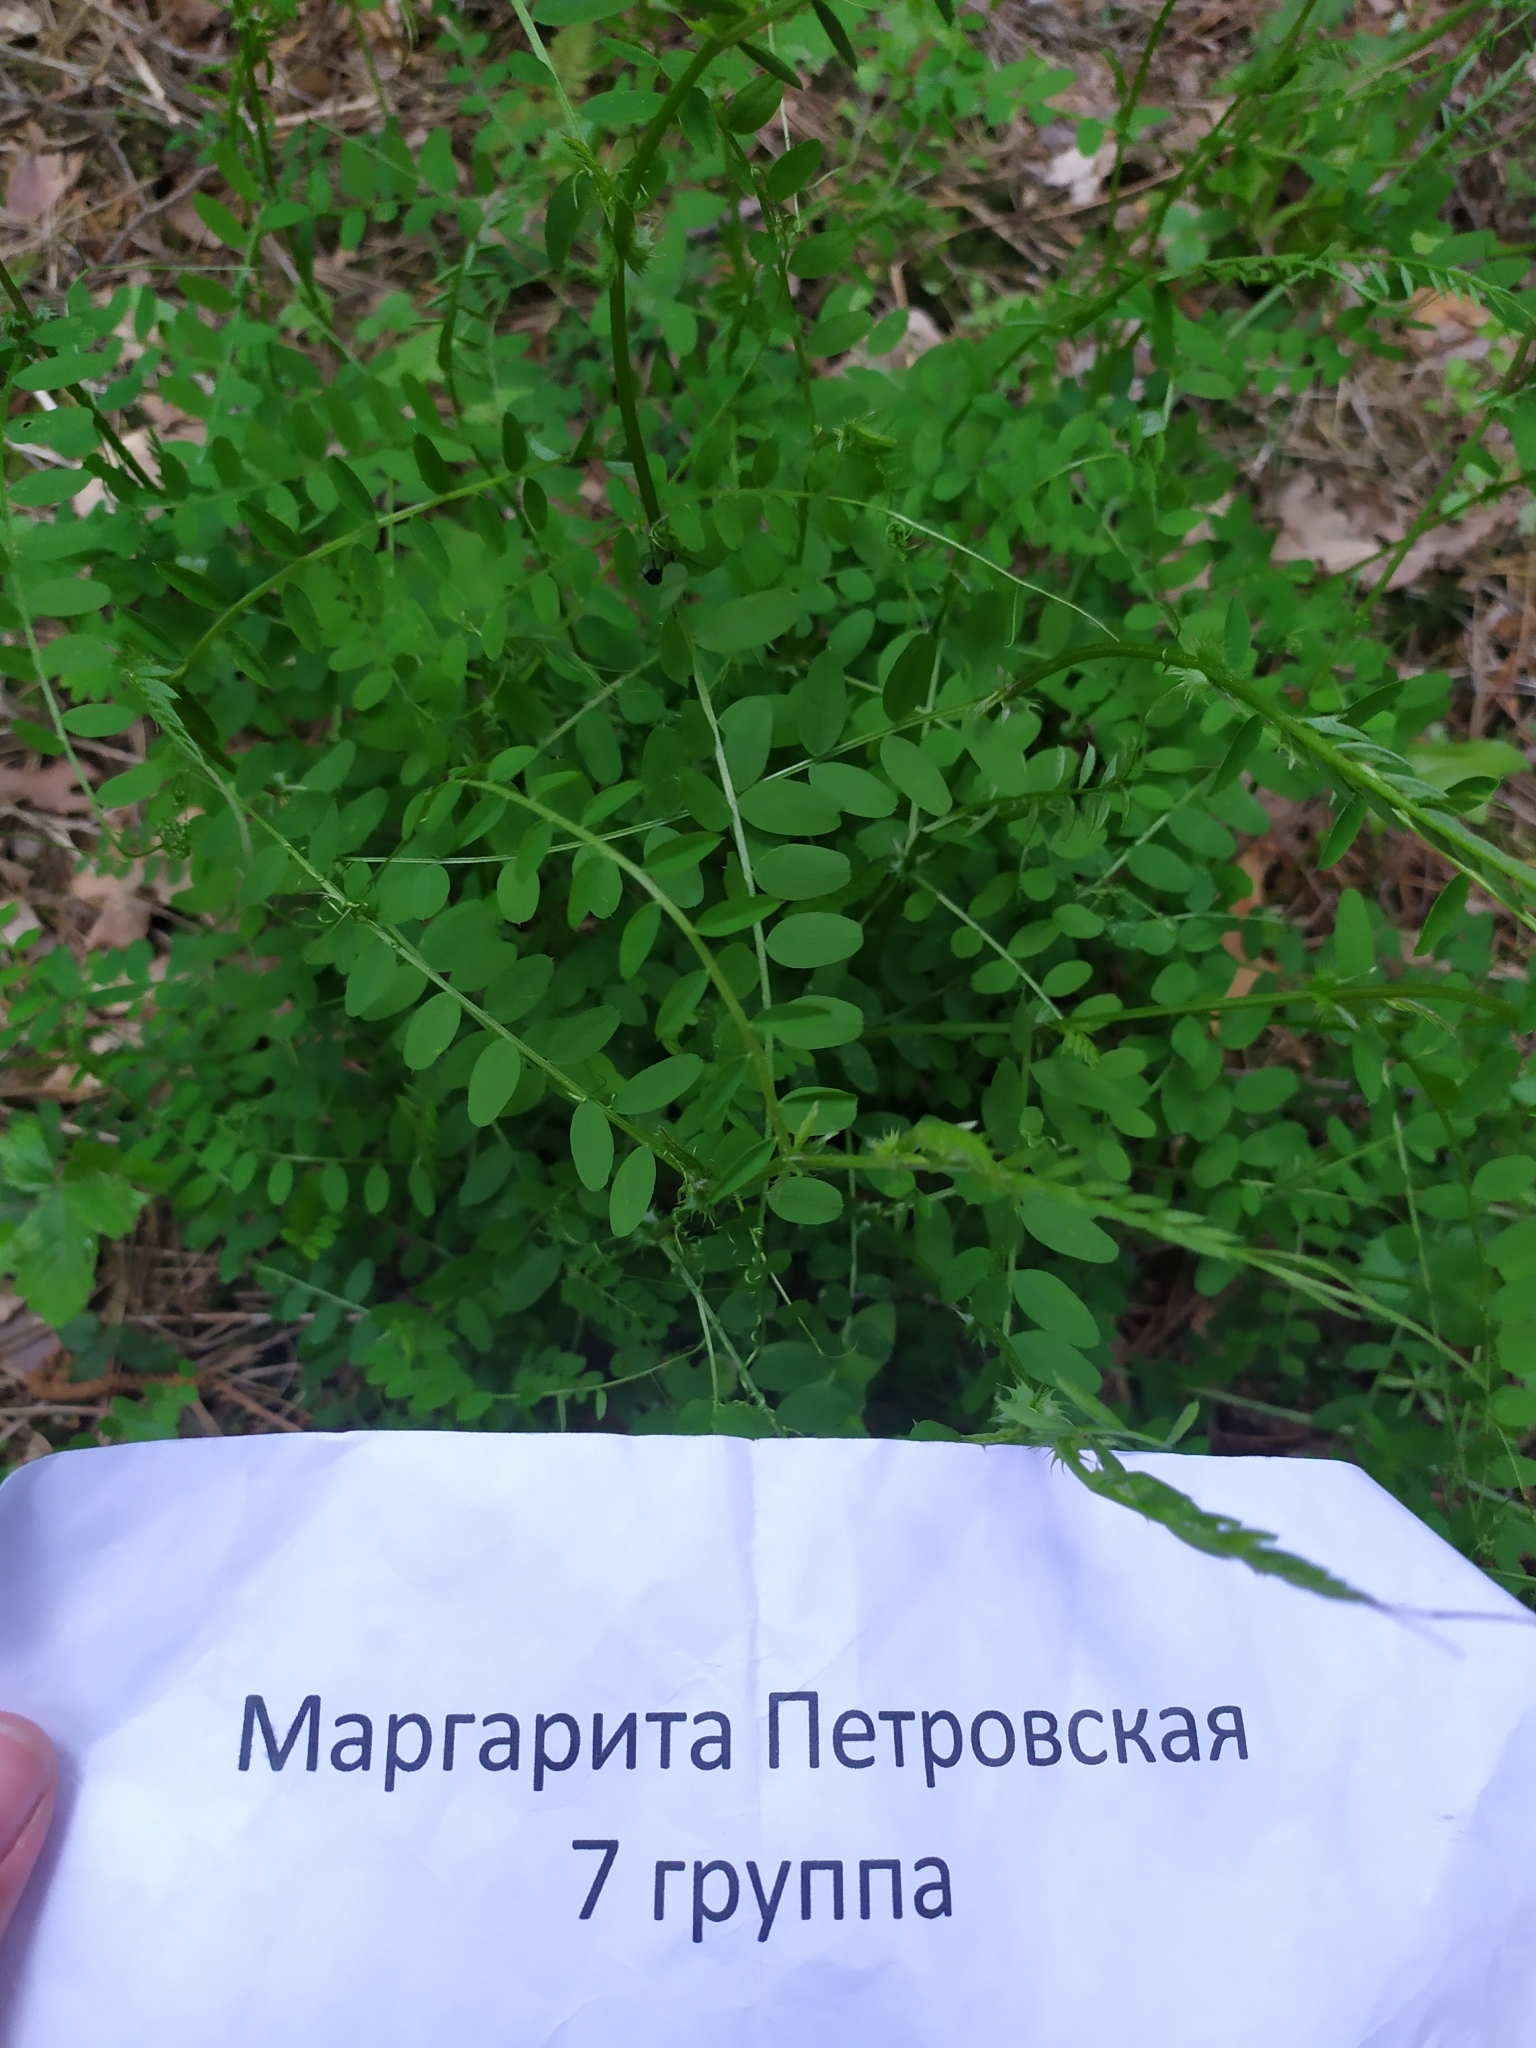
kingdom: Plantae
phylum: Tracheophyta
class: Magnoliopsida
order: Fabales
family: Fabaceae
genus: Vicia
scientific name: Vicia sylvatica
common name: Wood vetch
